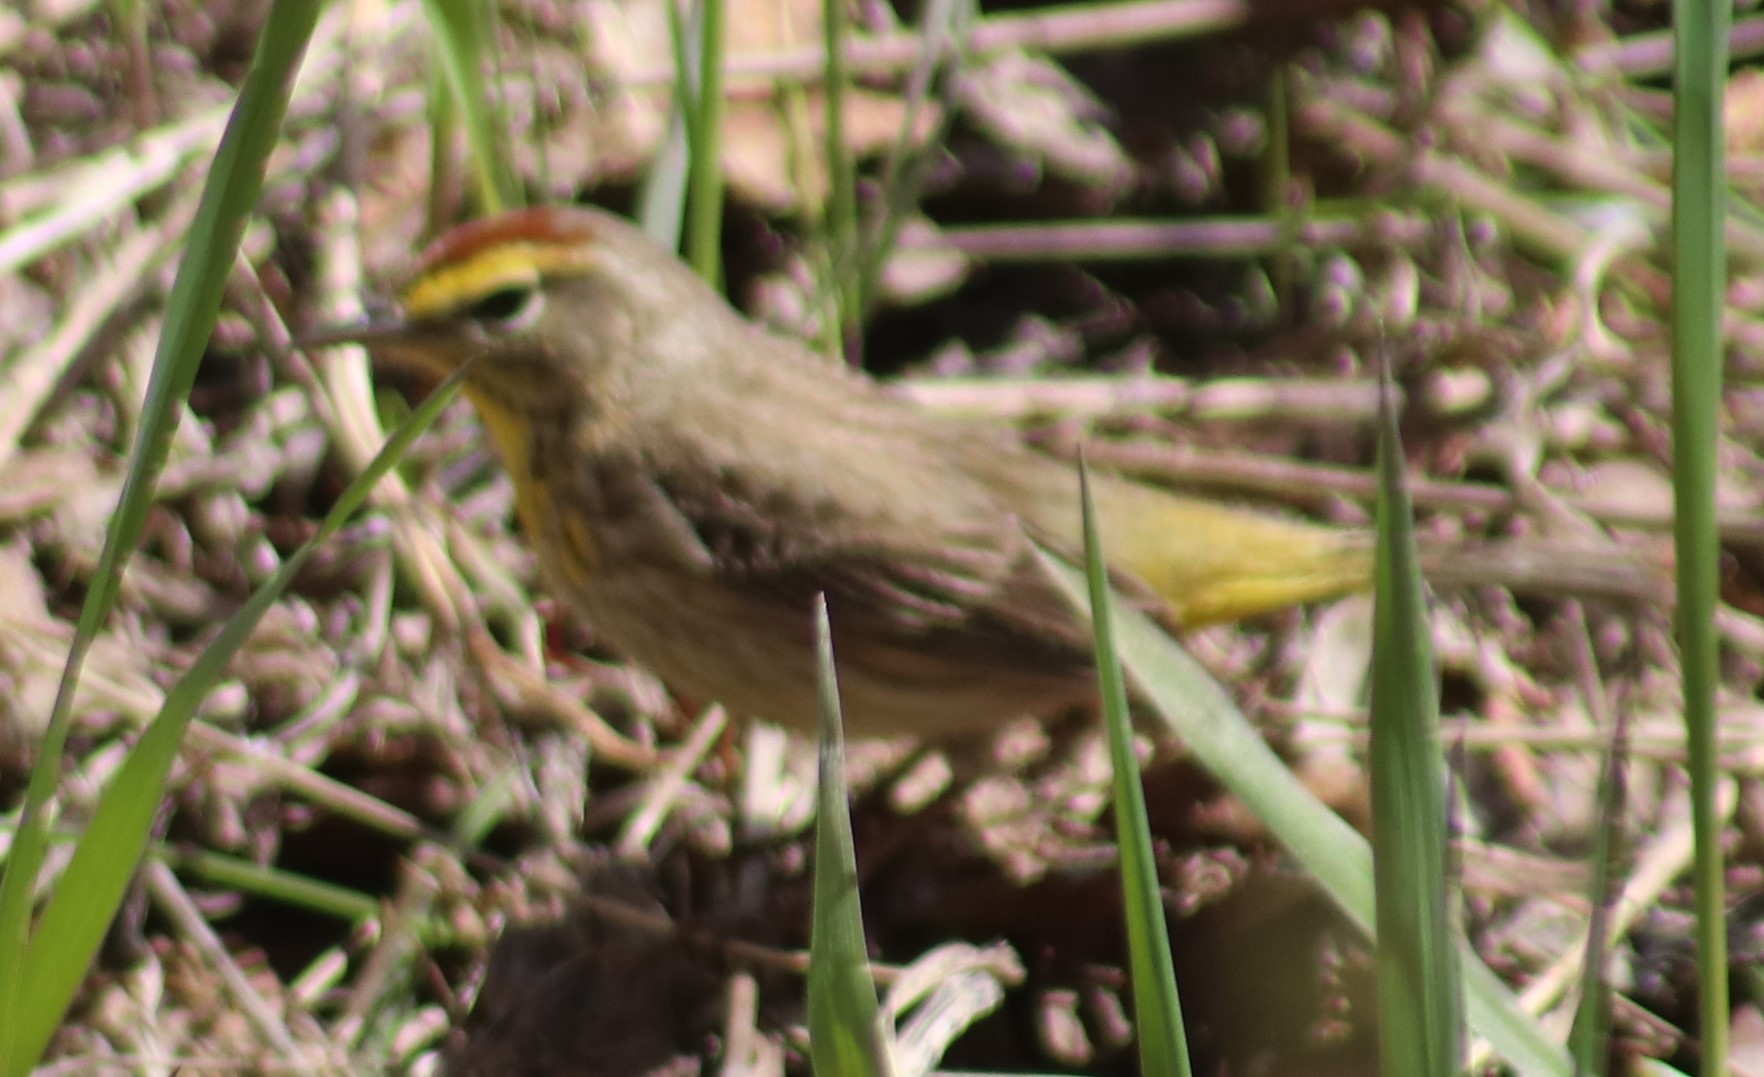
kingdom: Animalia
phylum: Chordata
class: Aves
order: Passeriformes
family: Parulidae
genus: Setophaga
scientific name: Setophaga palmarum
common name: Palm warbler
